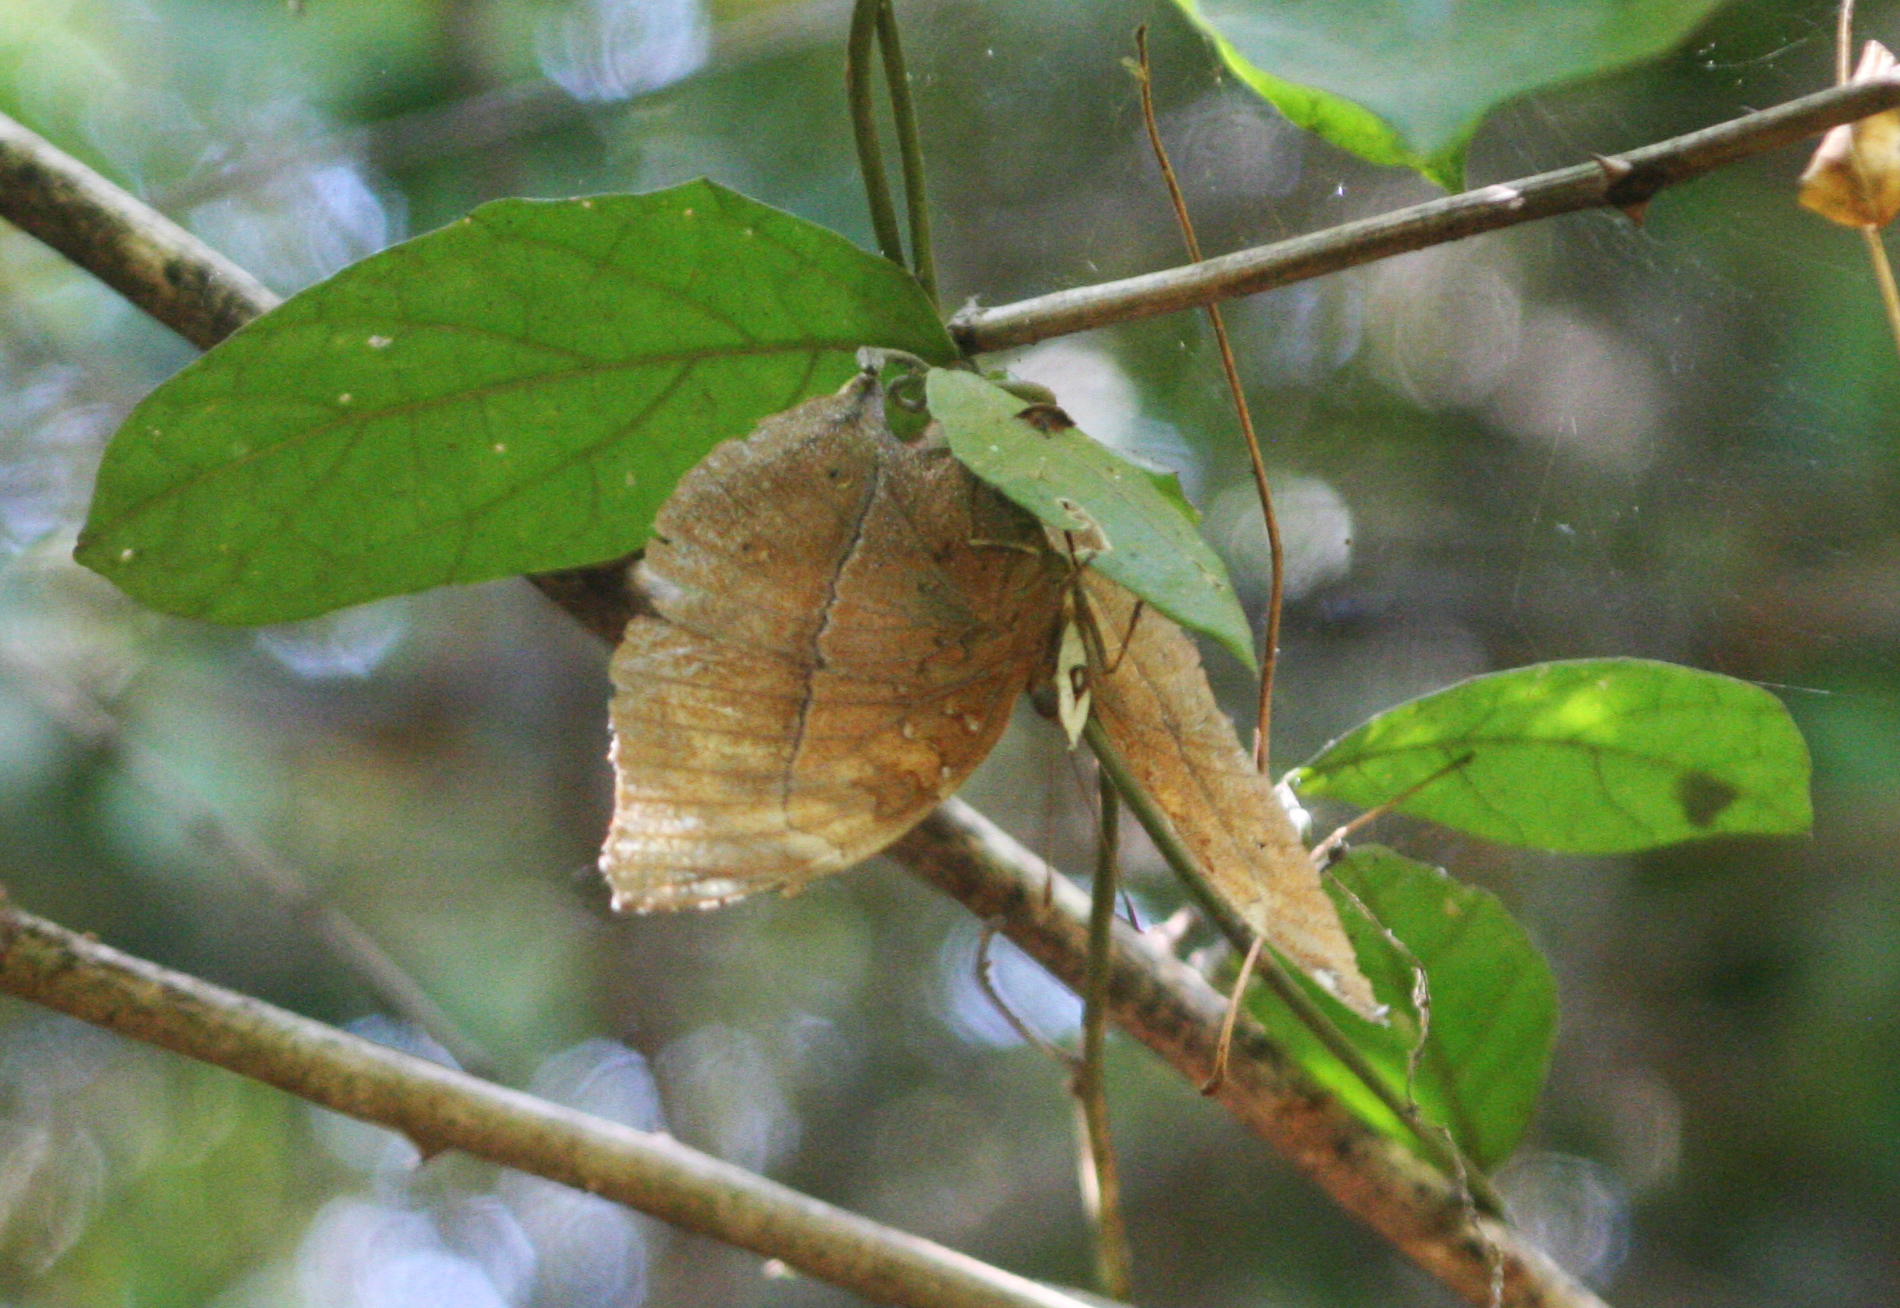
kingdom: Animalia
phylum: Arthropoda
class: Insecta
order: Lepidoptera
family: Nymphalidae
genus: Doleschallia
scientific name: Doleschallia bisaltide
